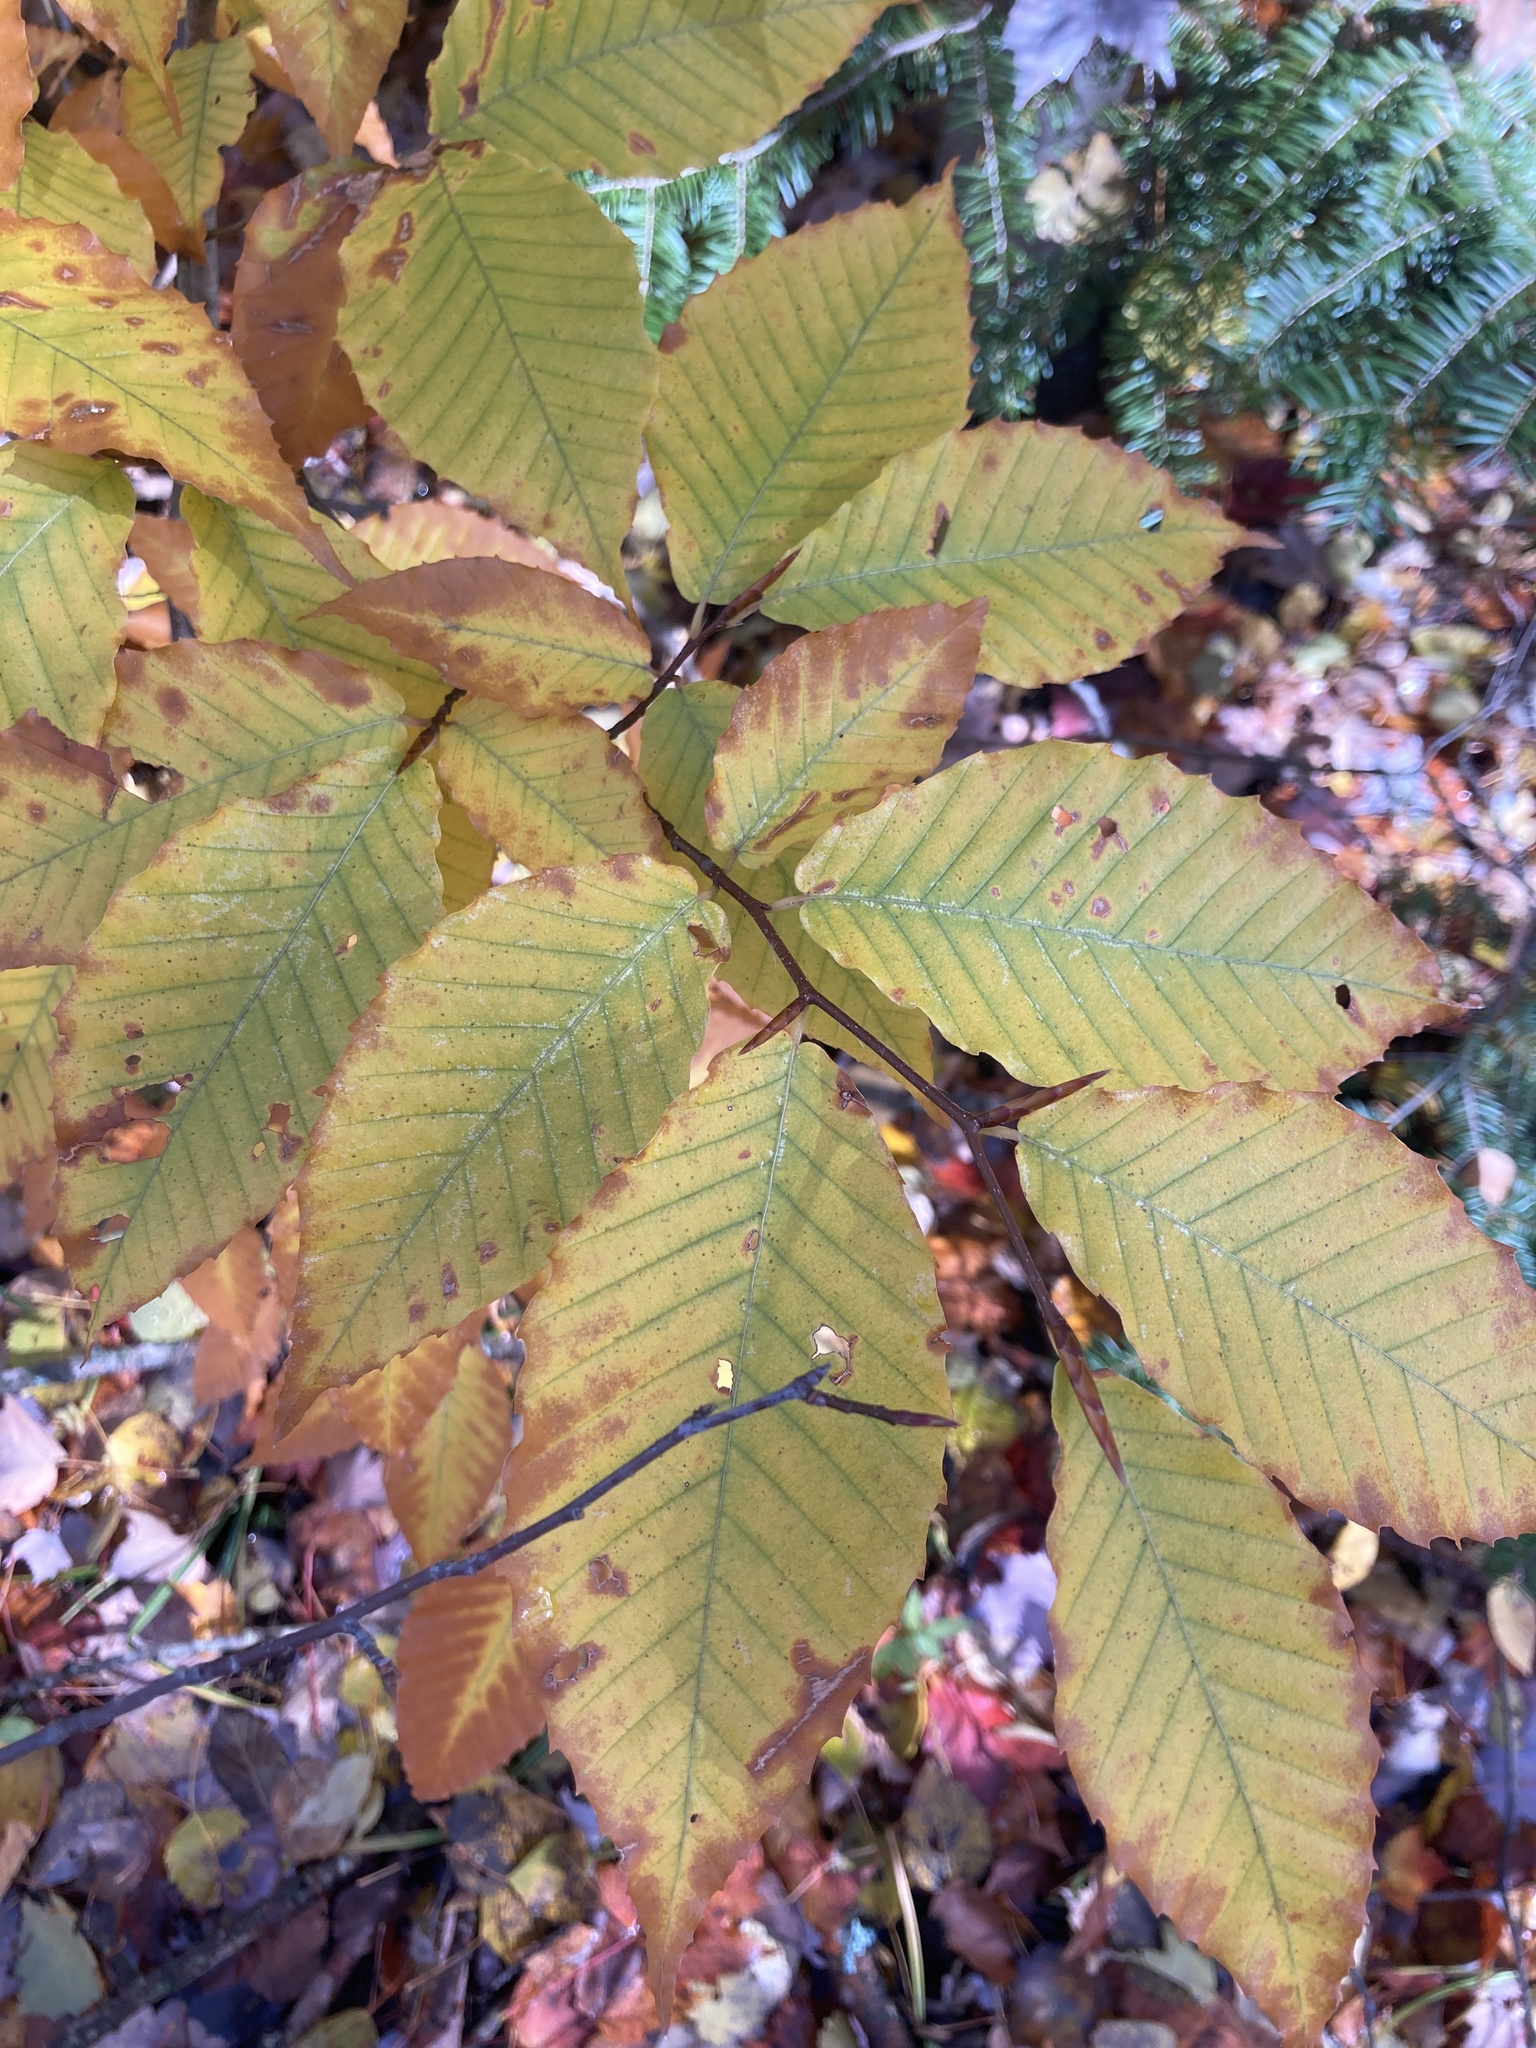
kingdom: Plantae
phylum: Tracheophyta
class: Magnoliopsida
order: Fagales
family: Fagaceae
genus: Fagus
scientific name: Fagus grandifolia
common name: American beech
